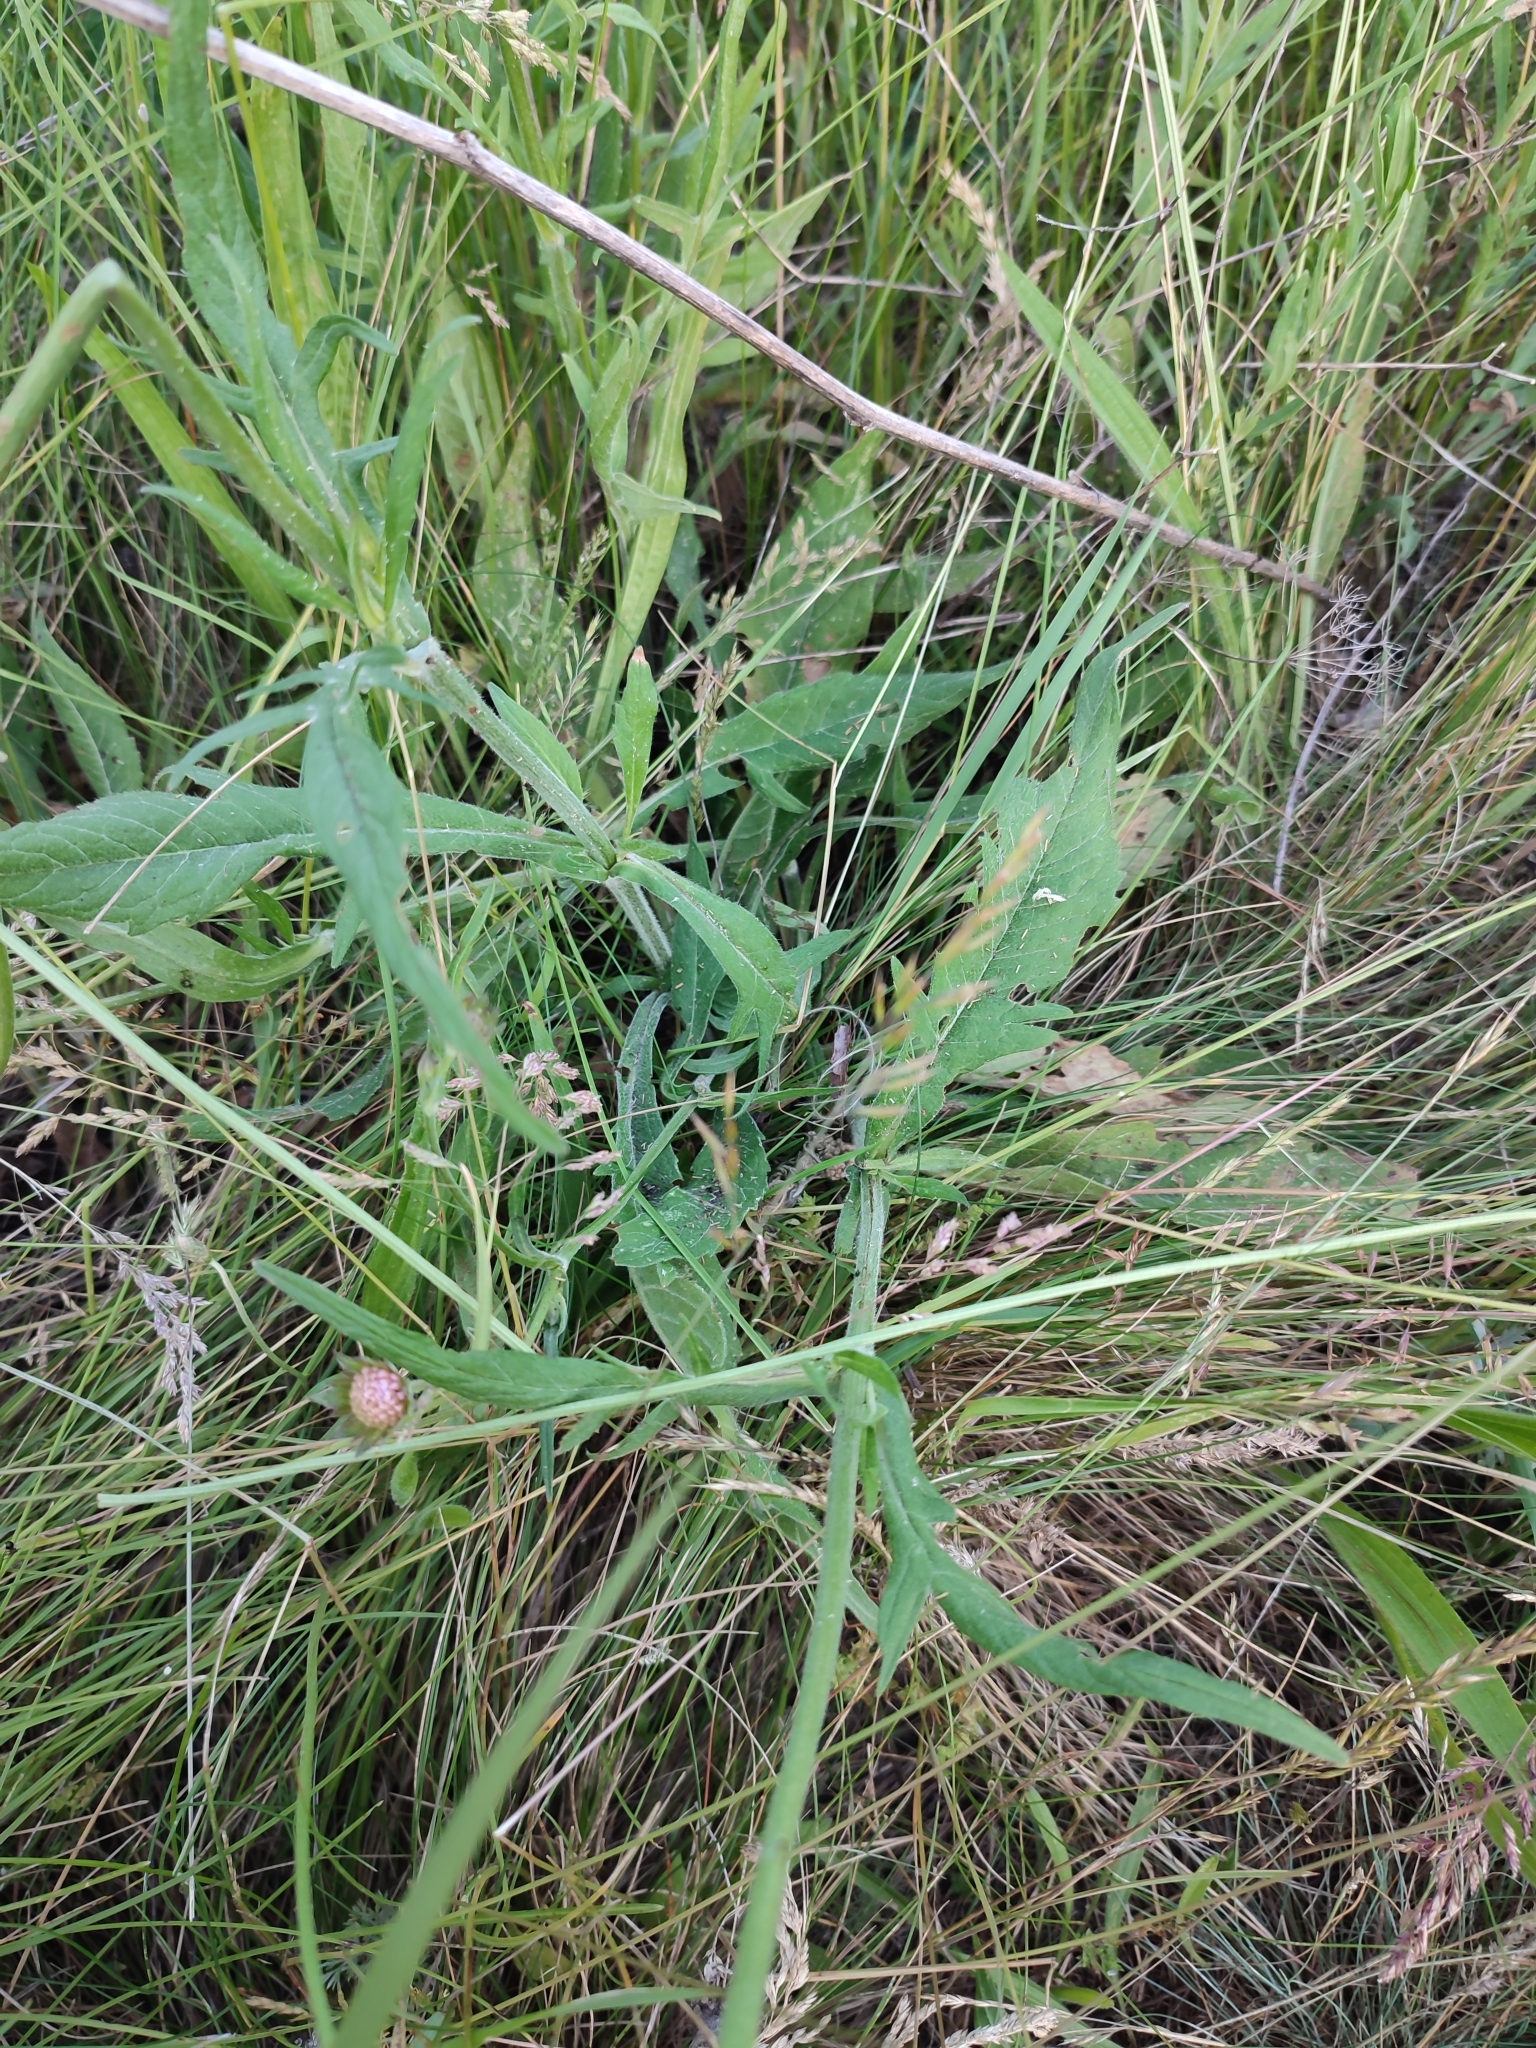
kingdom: Plantae
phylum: Tracheophyta
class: Magnoliopsida
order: Dipsacales
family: Caprifoliaceae
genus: Knautia
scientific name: Knautia arvensis
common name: Field scabiosa
